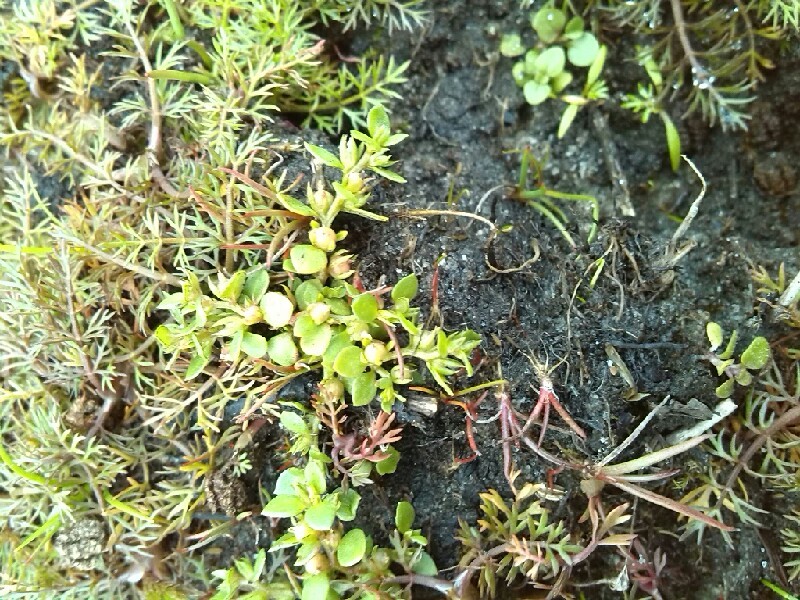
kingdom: Plantae
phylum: Tracheophyta
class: Magnoliopsida
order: Ericales
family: Primulaceae
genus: Lysimachia
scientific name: Lysimachia minima
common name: Chaffweed
